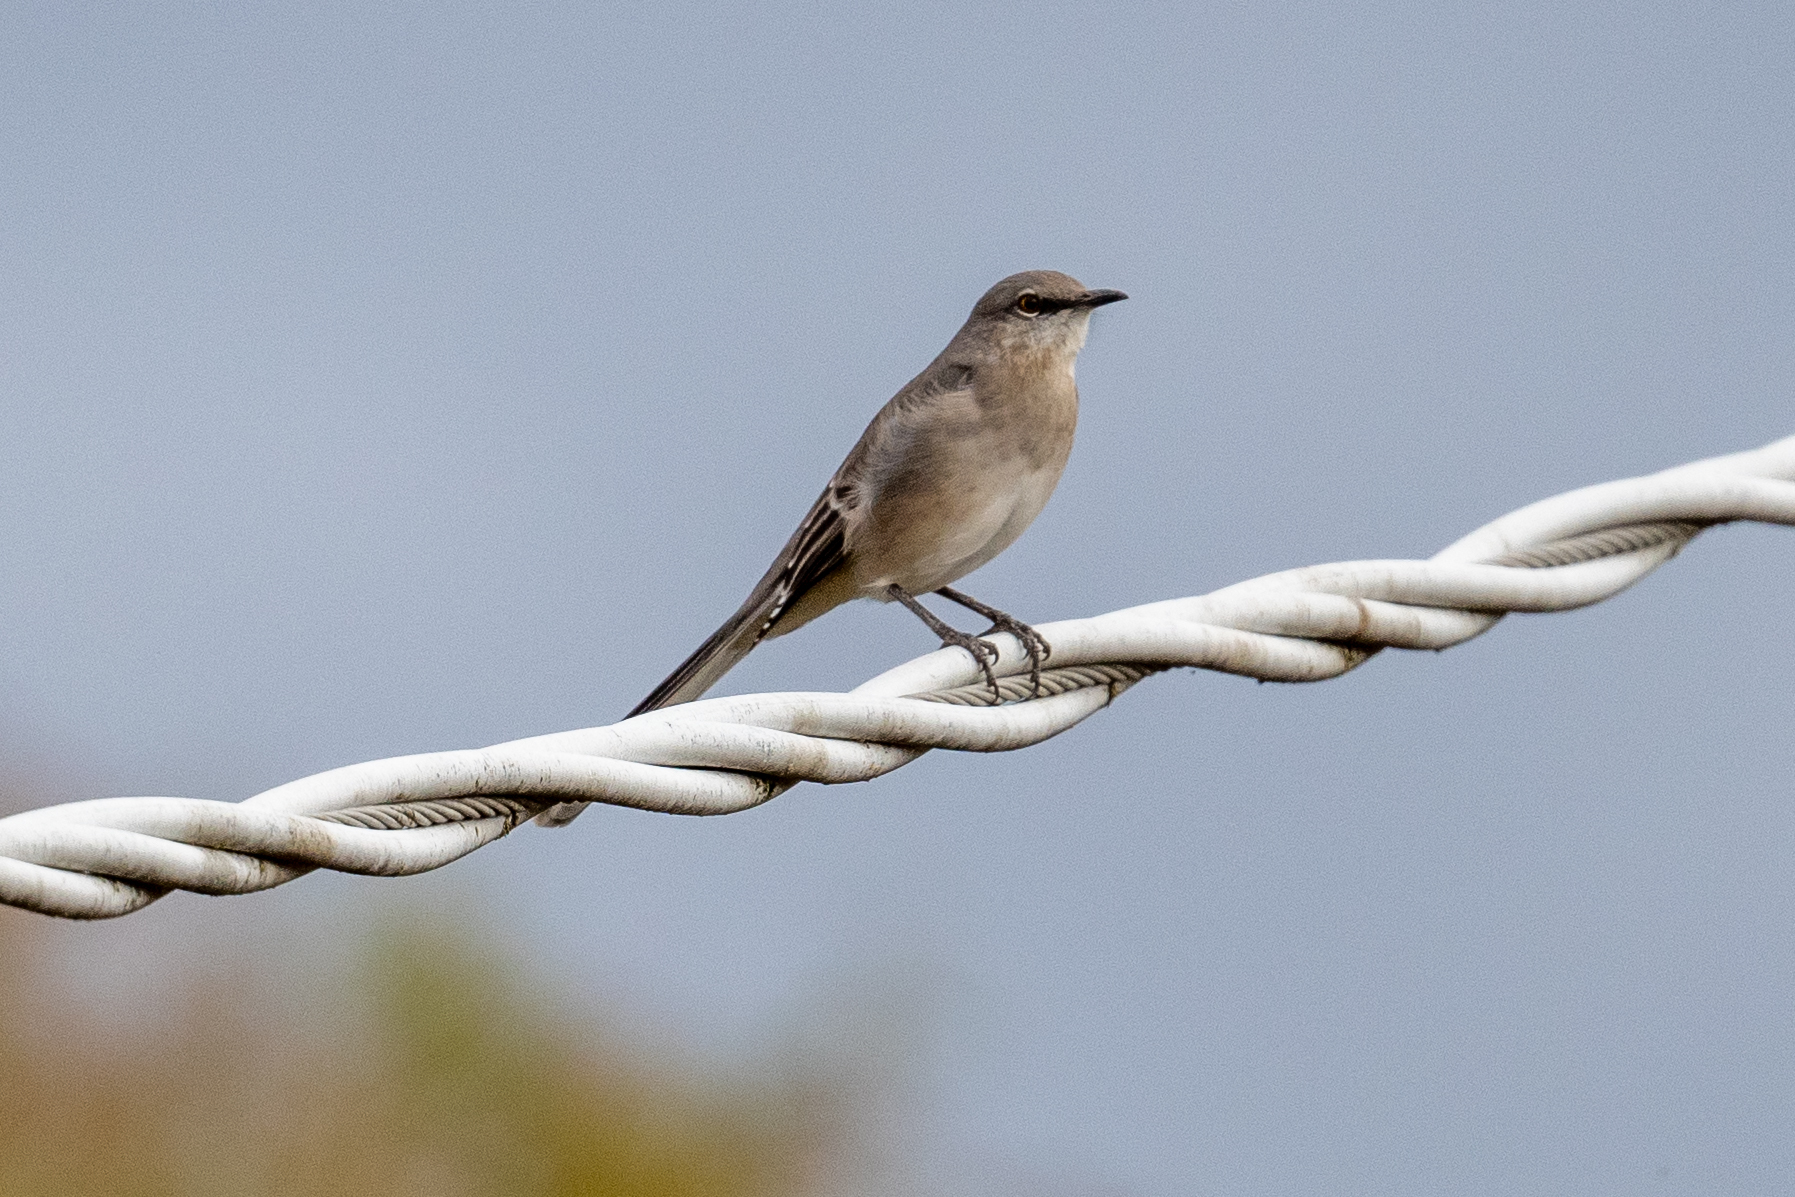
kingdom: Animalia
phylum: Chordata
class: Aves
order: Passeriformes
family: Mimidae
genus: Mimus
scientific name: Mimus polyglottos
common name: Northern mockingbird
